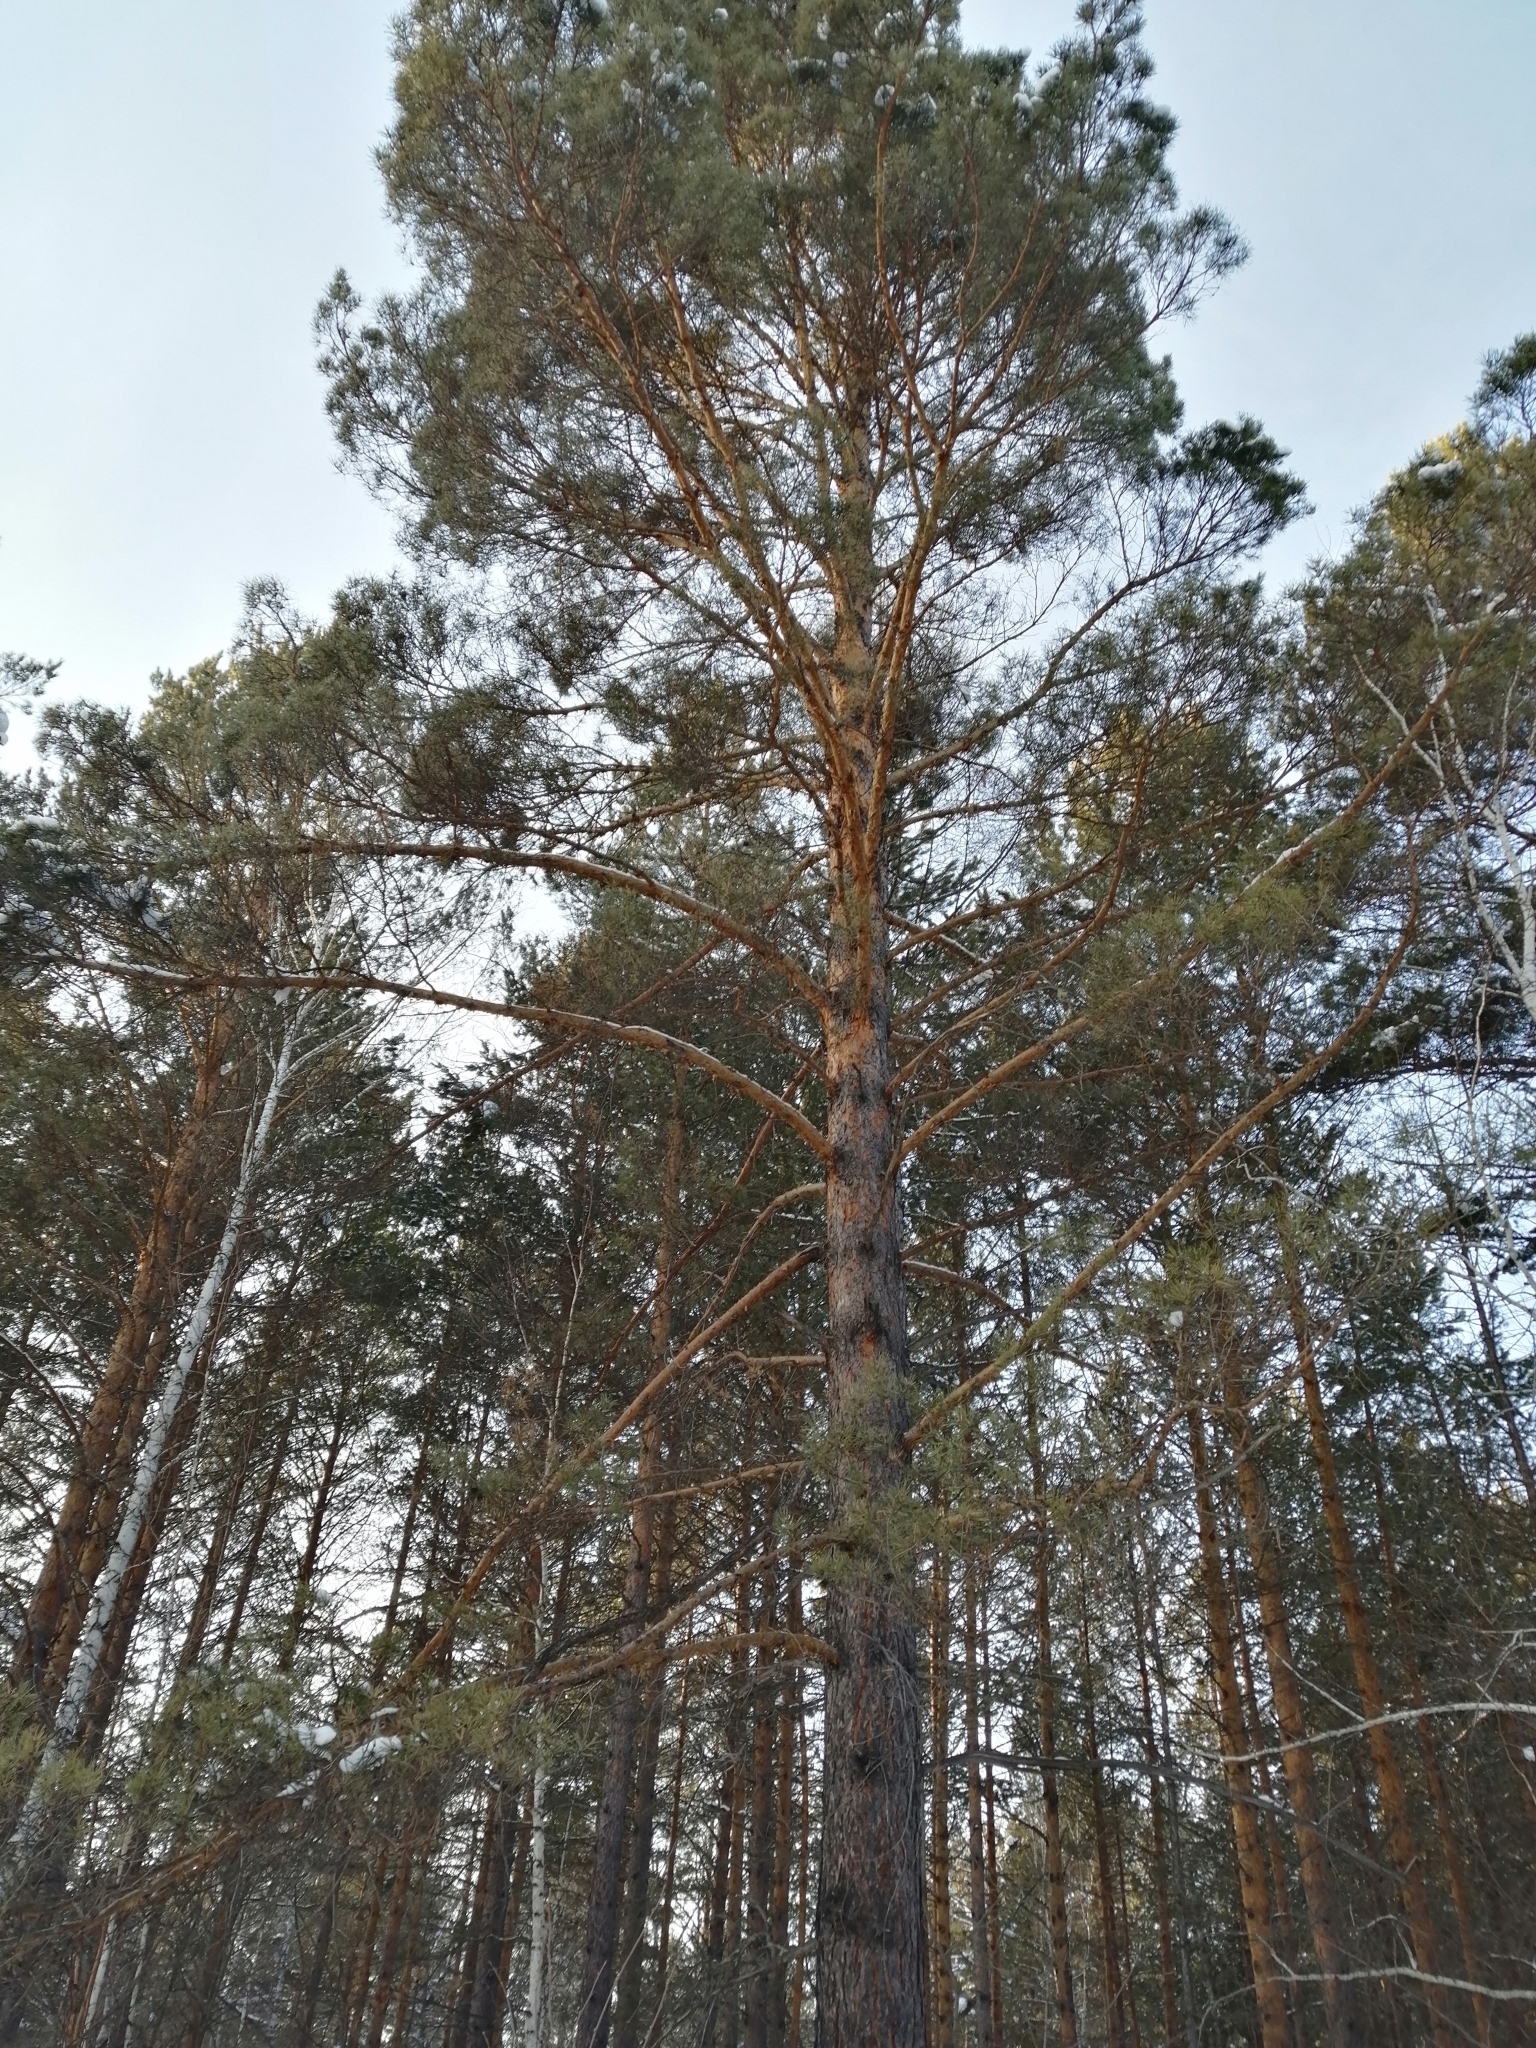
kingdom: Plantae
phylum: Tracheophyta
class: Pinopsida
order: Pinales
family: Pinaceae
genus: Pinus
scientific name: Pinus sylvestris
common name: Scots pine
